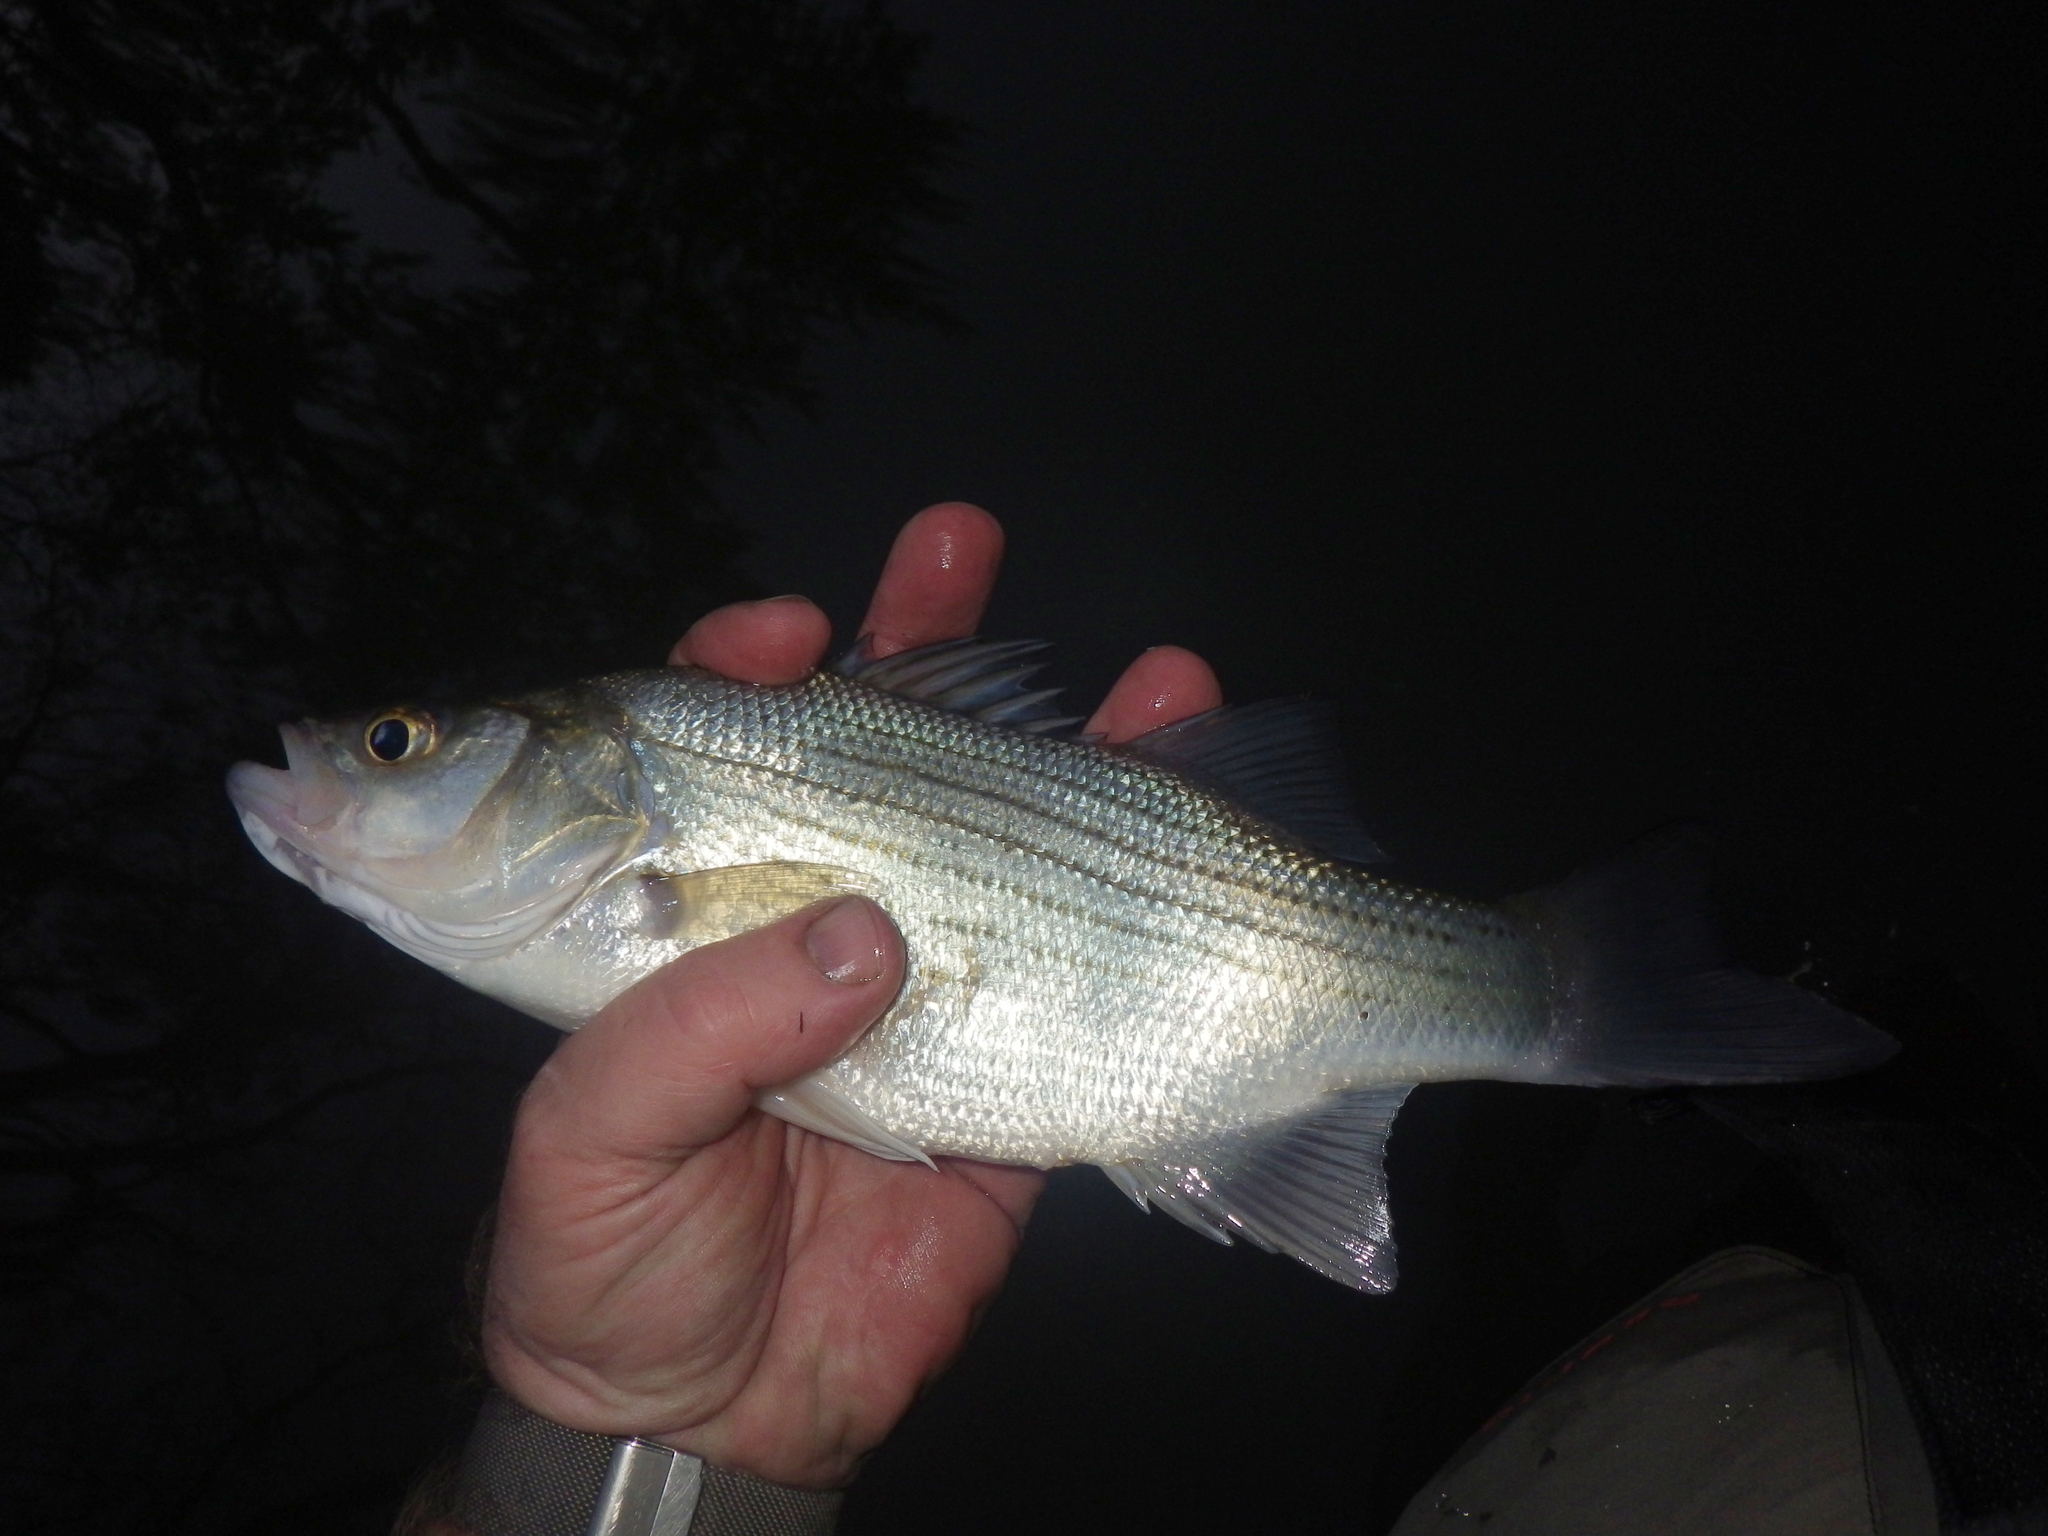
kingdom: Animalia
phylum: Chordata
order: Perciformes
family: Moronidae
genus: Morone
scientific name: Morone chrysops
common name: White bass
